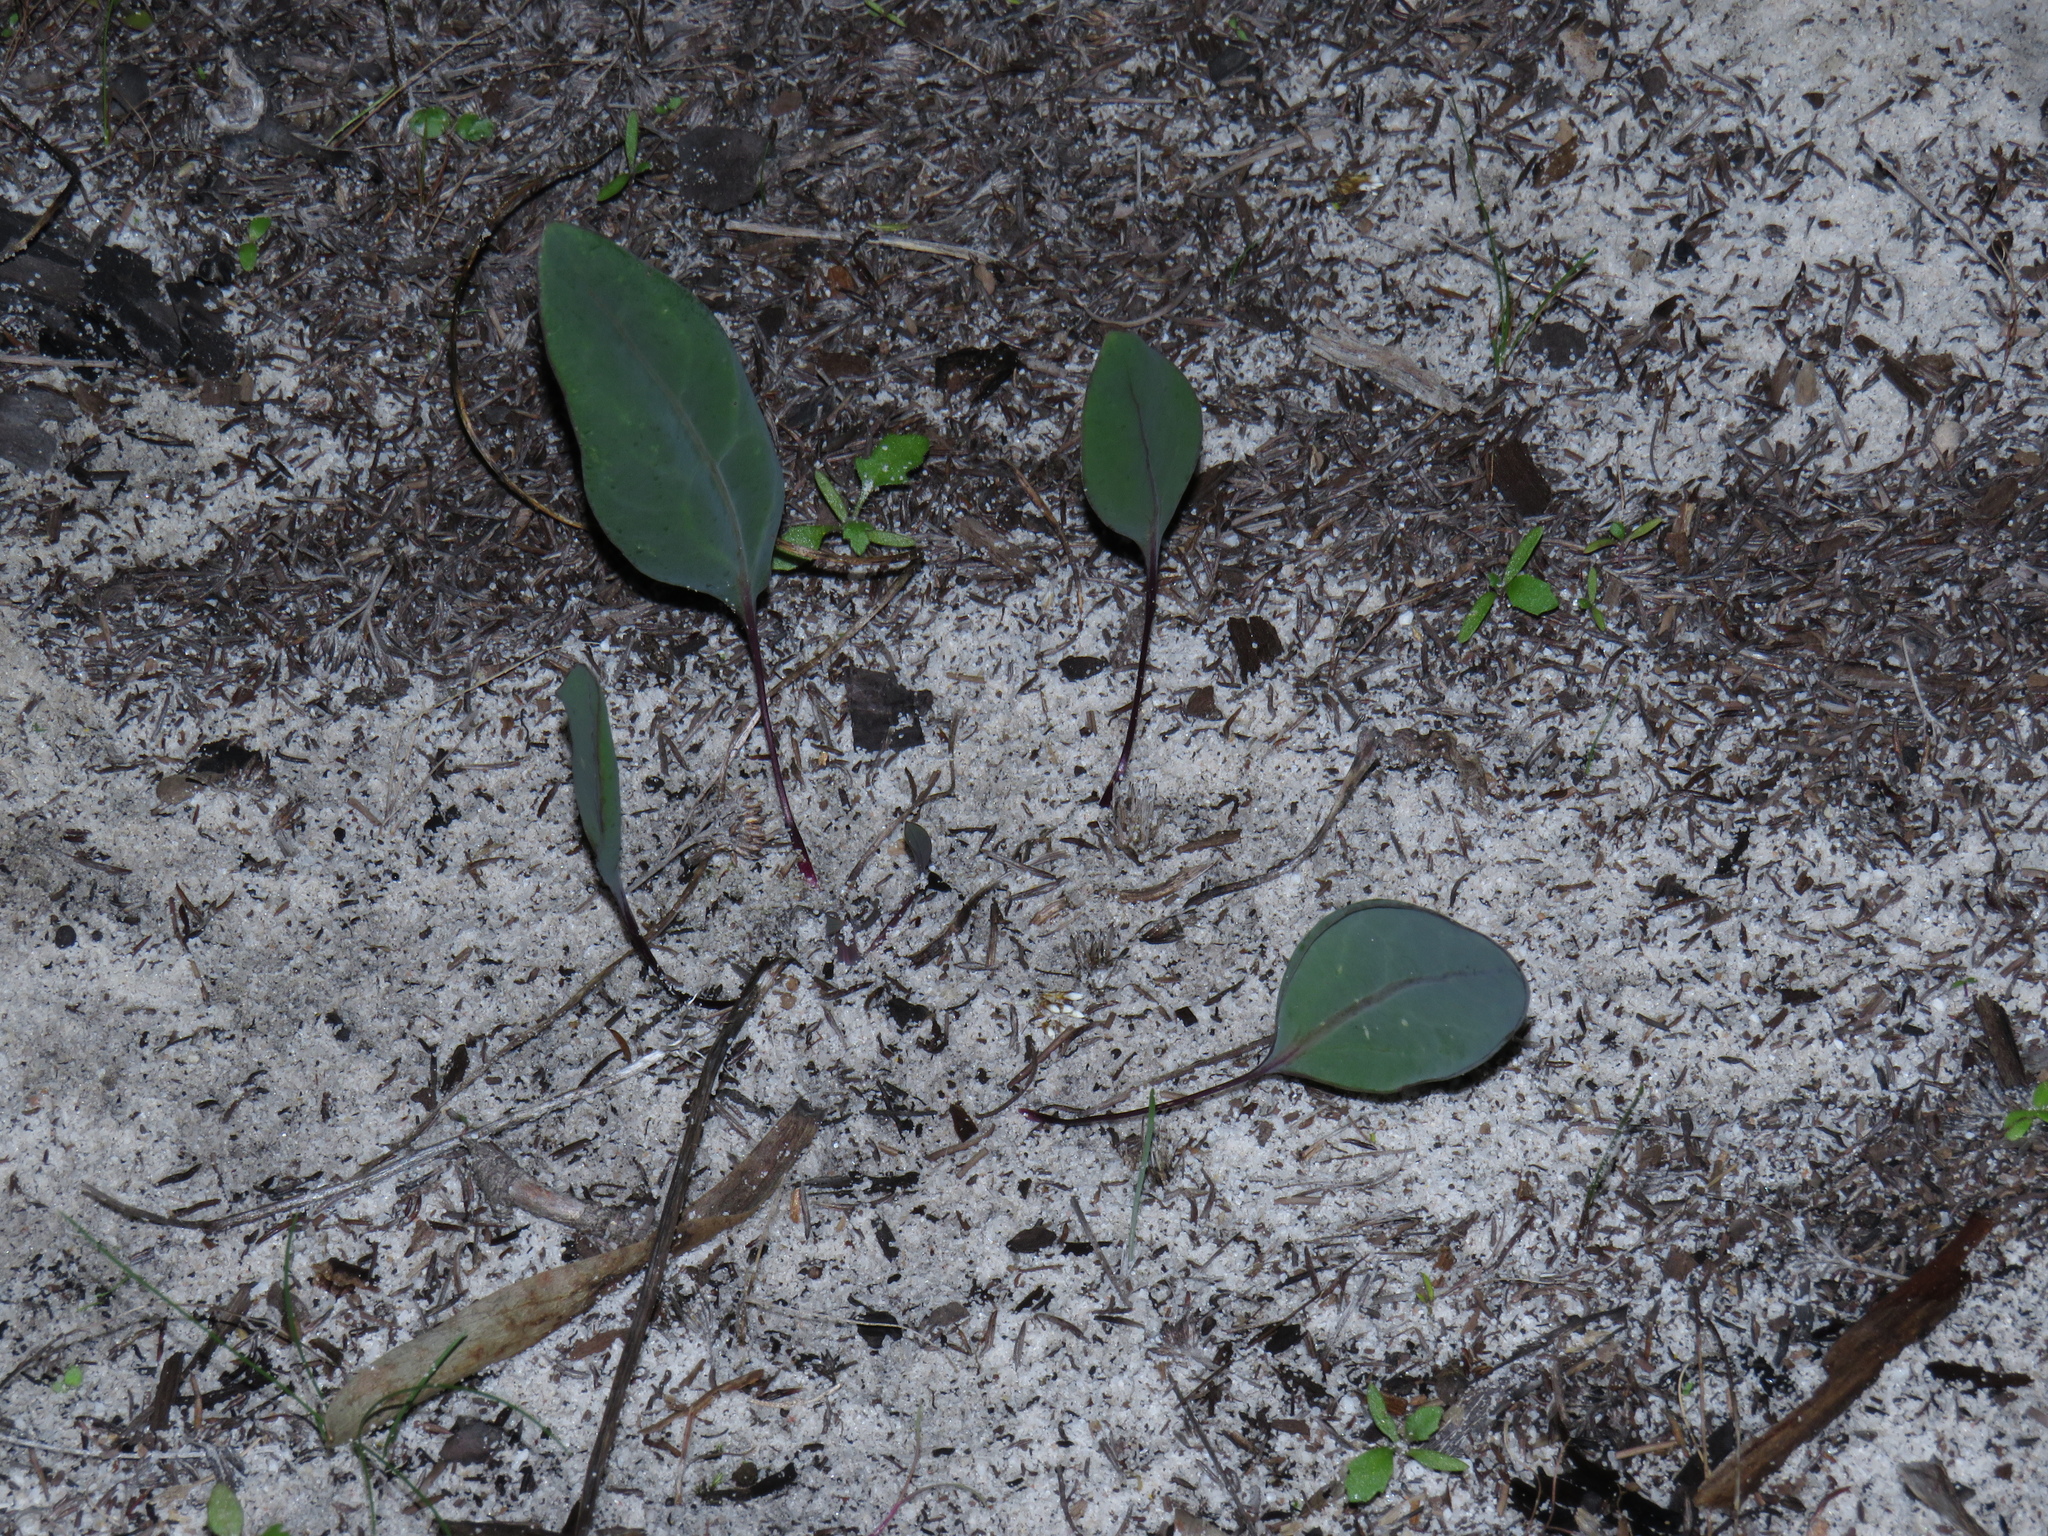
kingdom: Plantae
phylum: Tracheophyta
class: Magnoliopsida
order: Asterales
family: Asteraceae
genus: Othonna
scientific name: Othonna bulbosa
